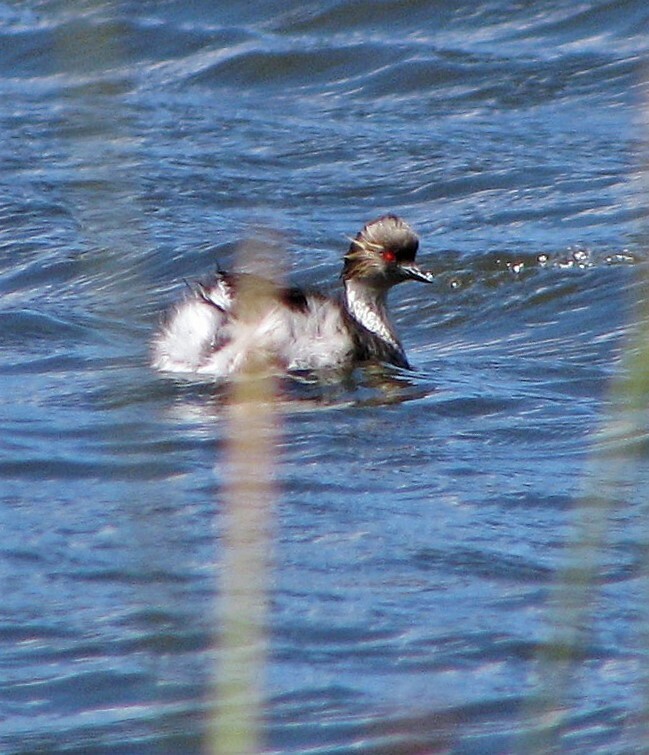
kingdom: Animalia
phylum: Chordata
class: Aves
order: Podicipediformes
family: Podicipedidae
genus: Podiceps
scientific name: Podiceps occipitalis
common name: Silvery grebe
